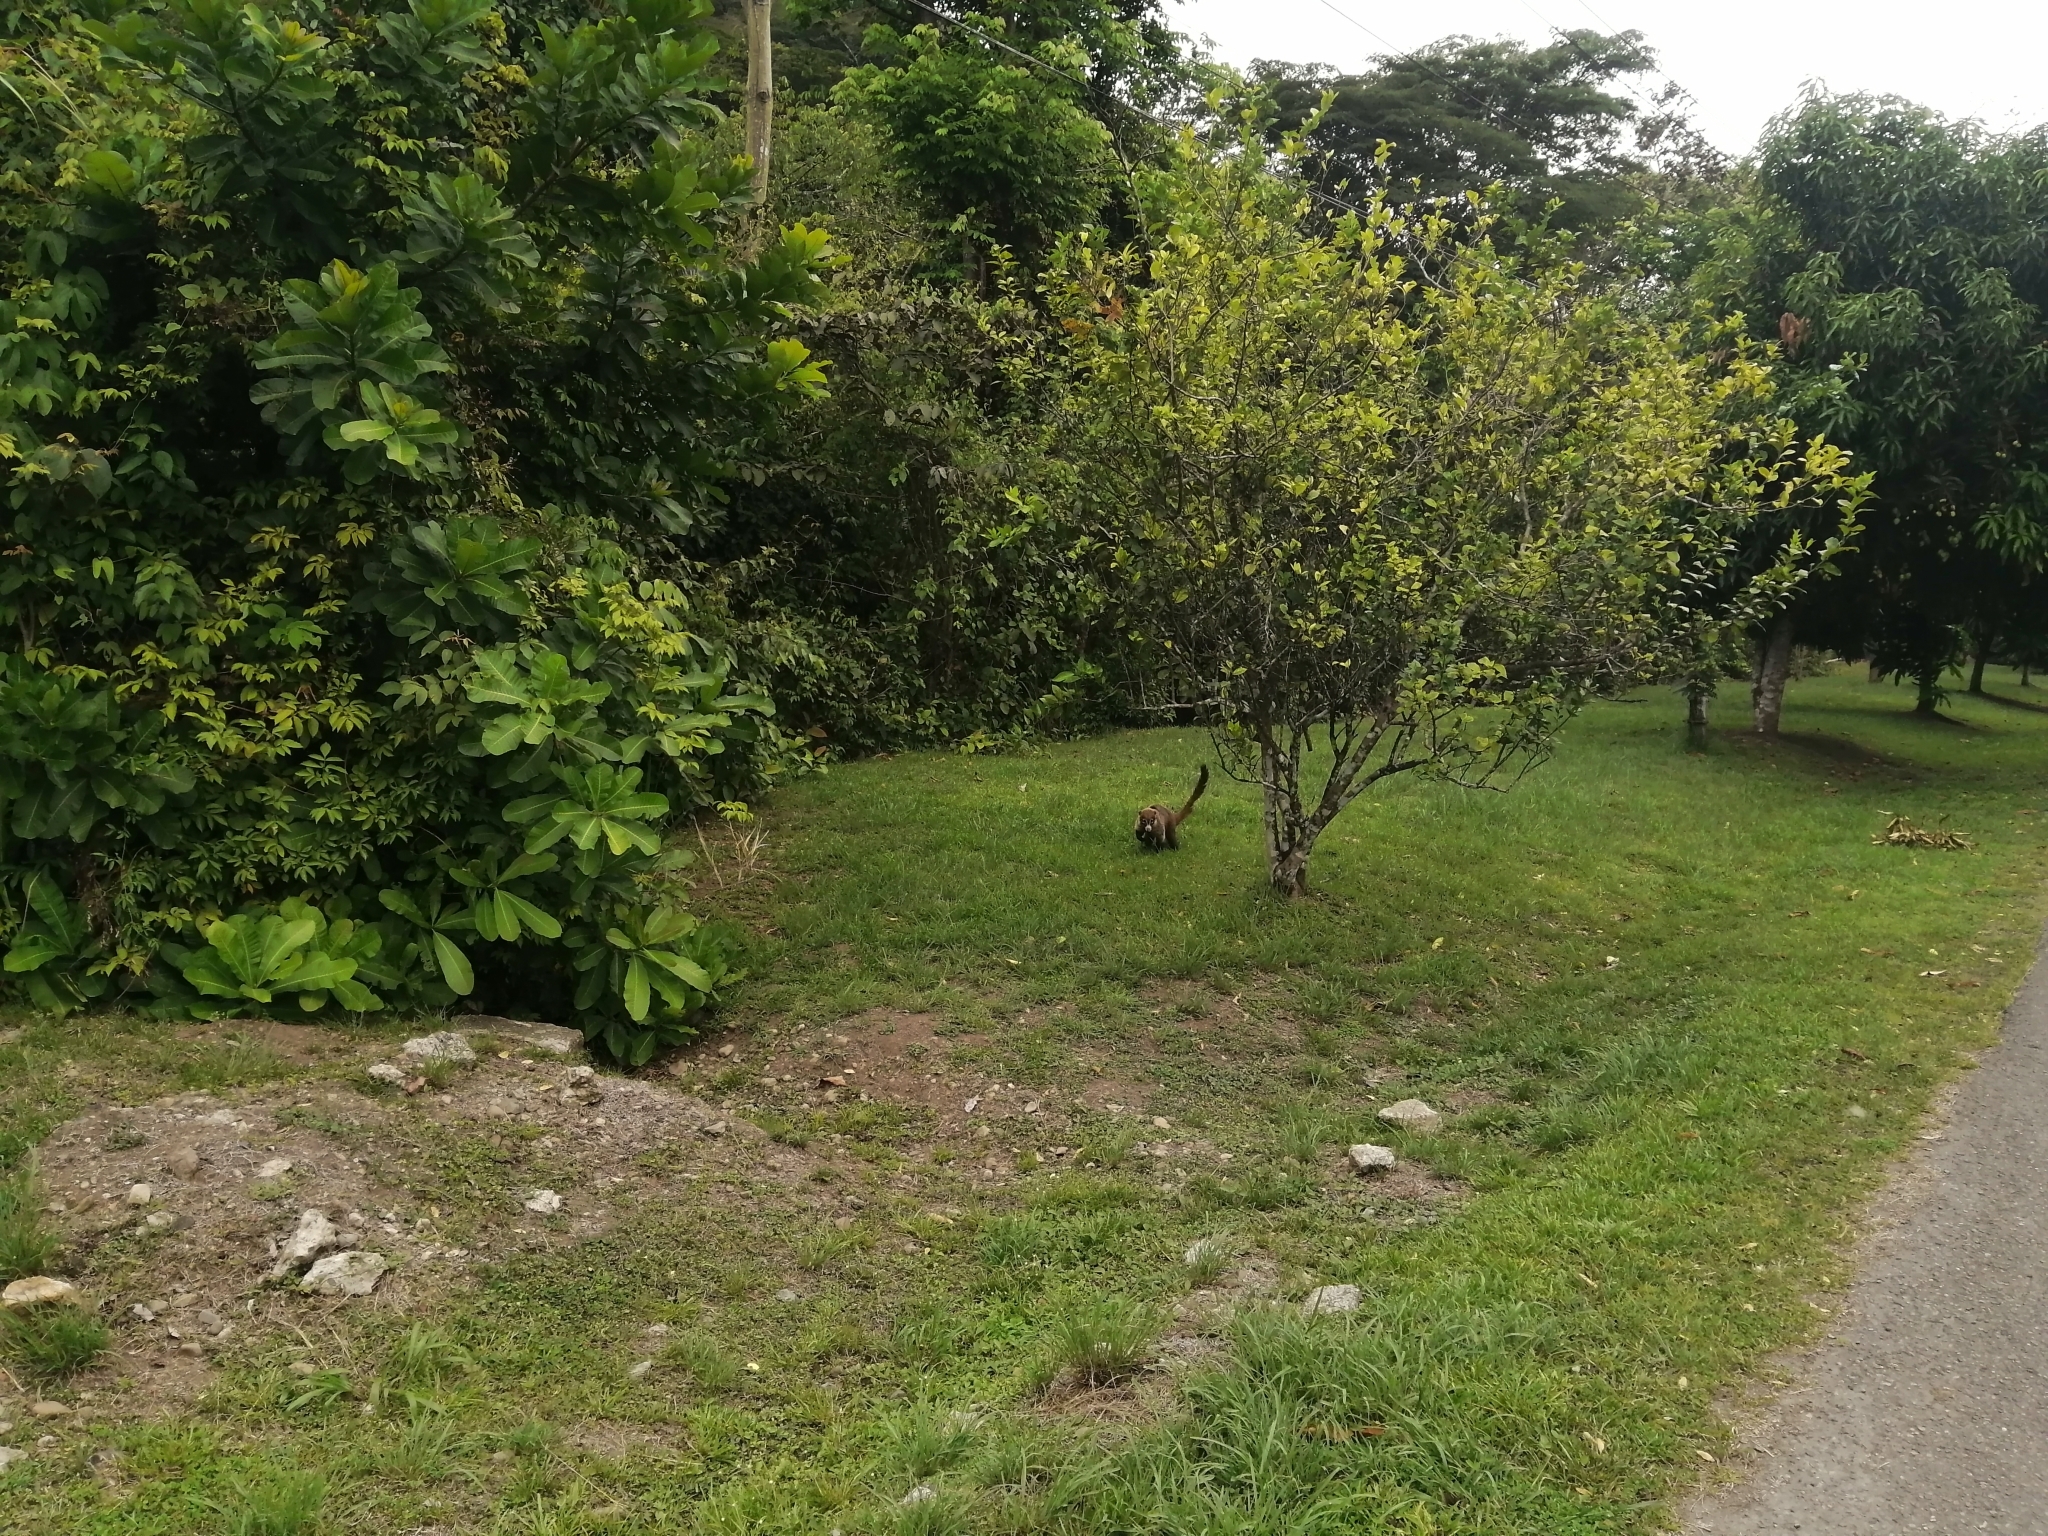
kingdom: Animalia
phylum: Chordata
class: Mammalia
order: Carnivora
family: Procyonidae
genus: Nasua
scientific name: Nasua narica
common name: White-nosed coati
